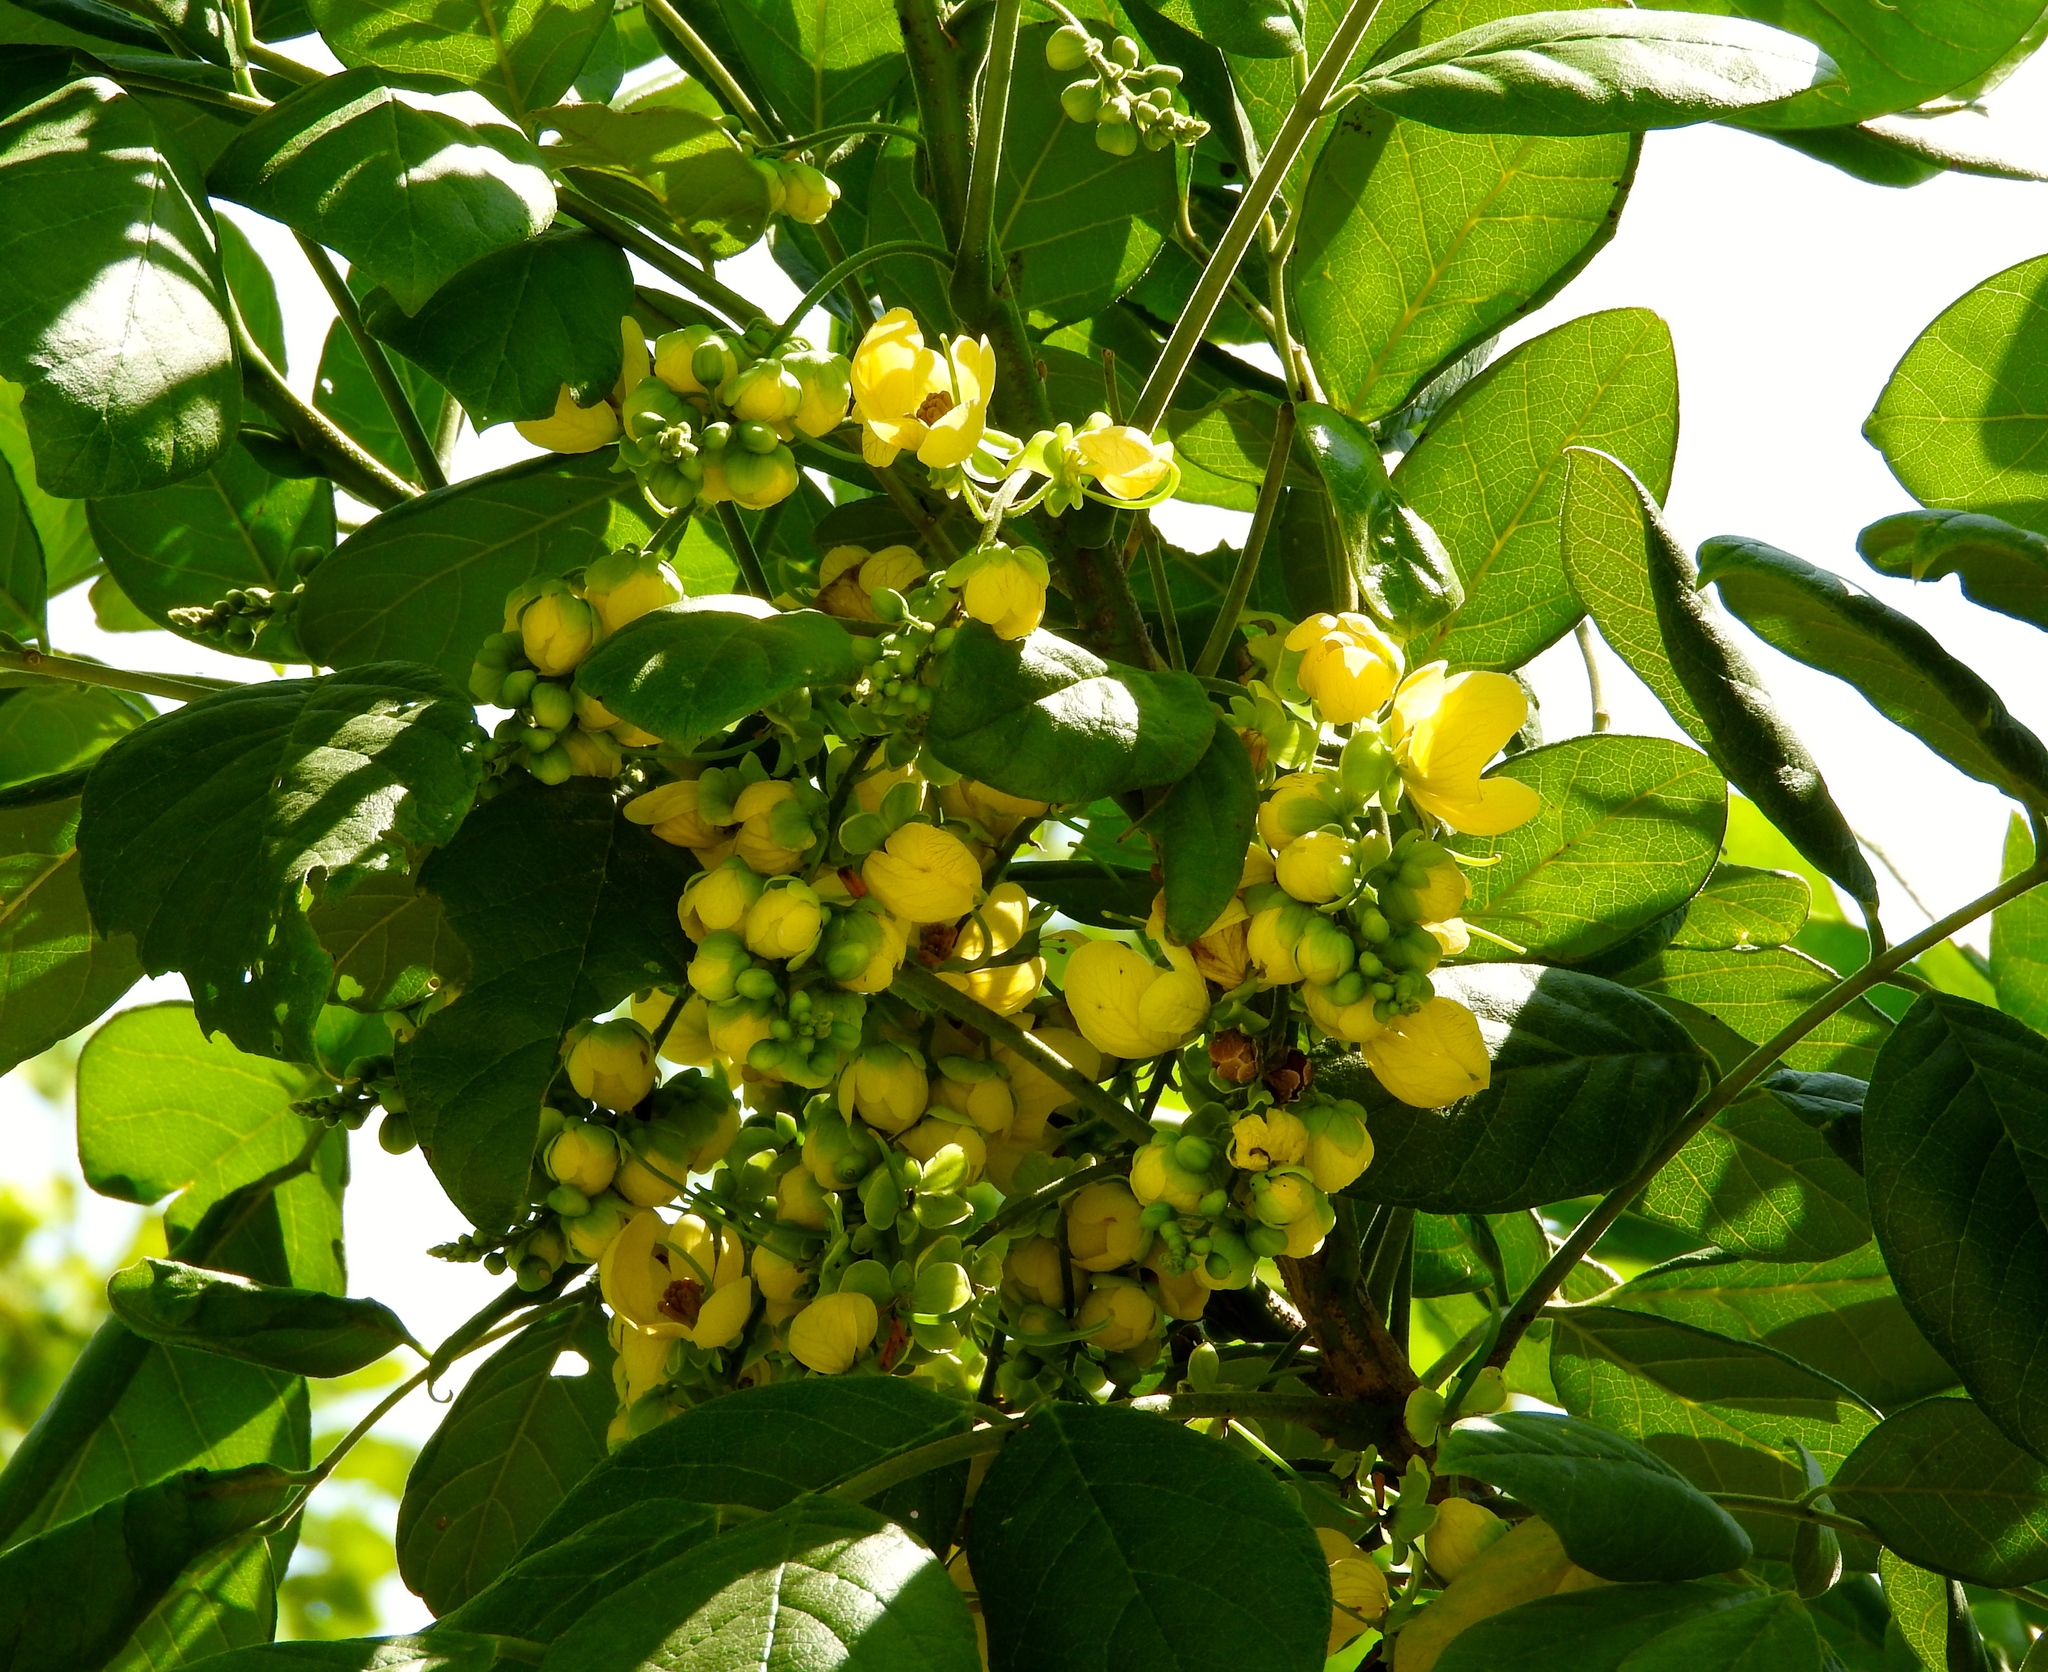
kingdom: Plantae
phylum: Tracheophyta
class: Magnoliopsida
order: Fabales
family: Fabaceae
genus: Senna
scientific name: Senna atomaria
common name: Flor de san jose
